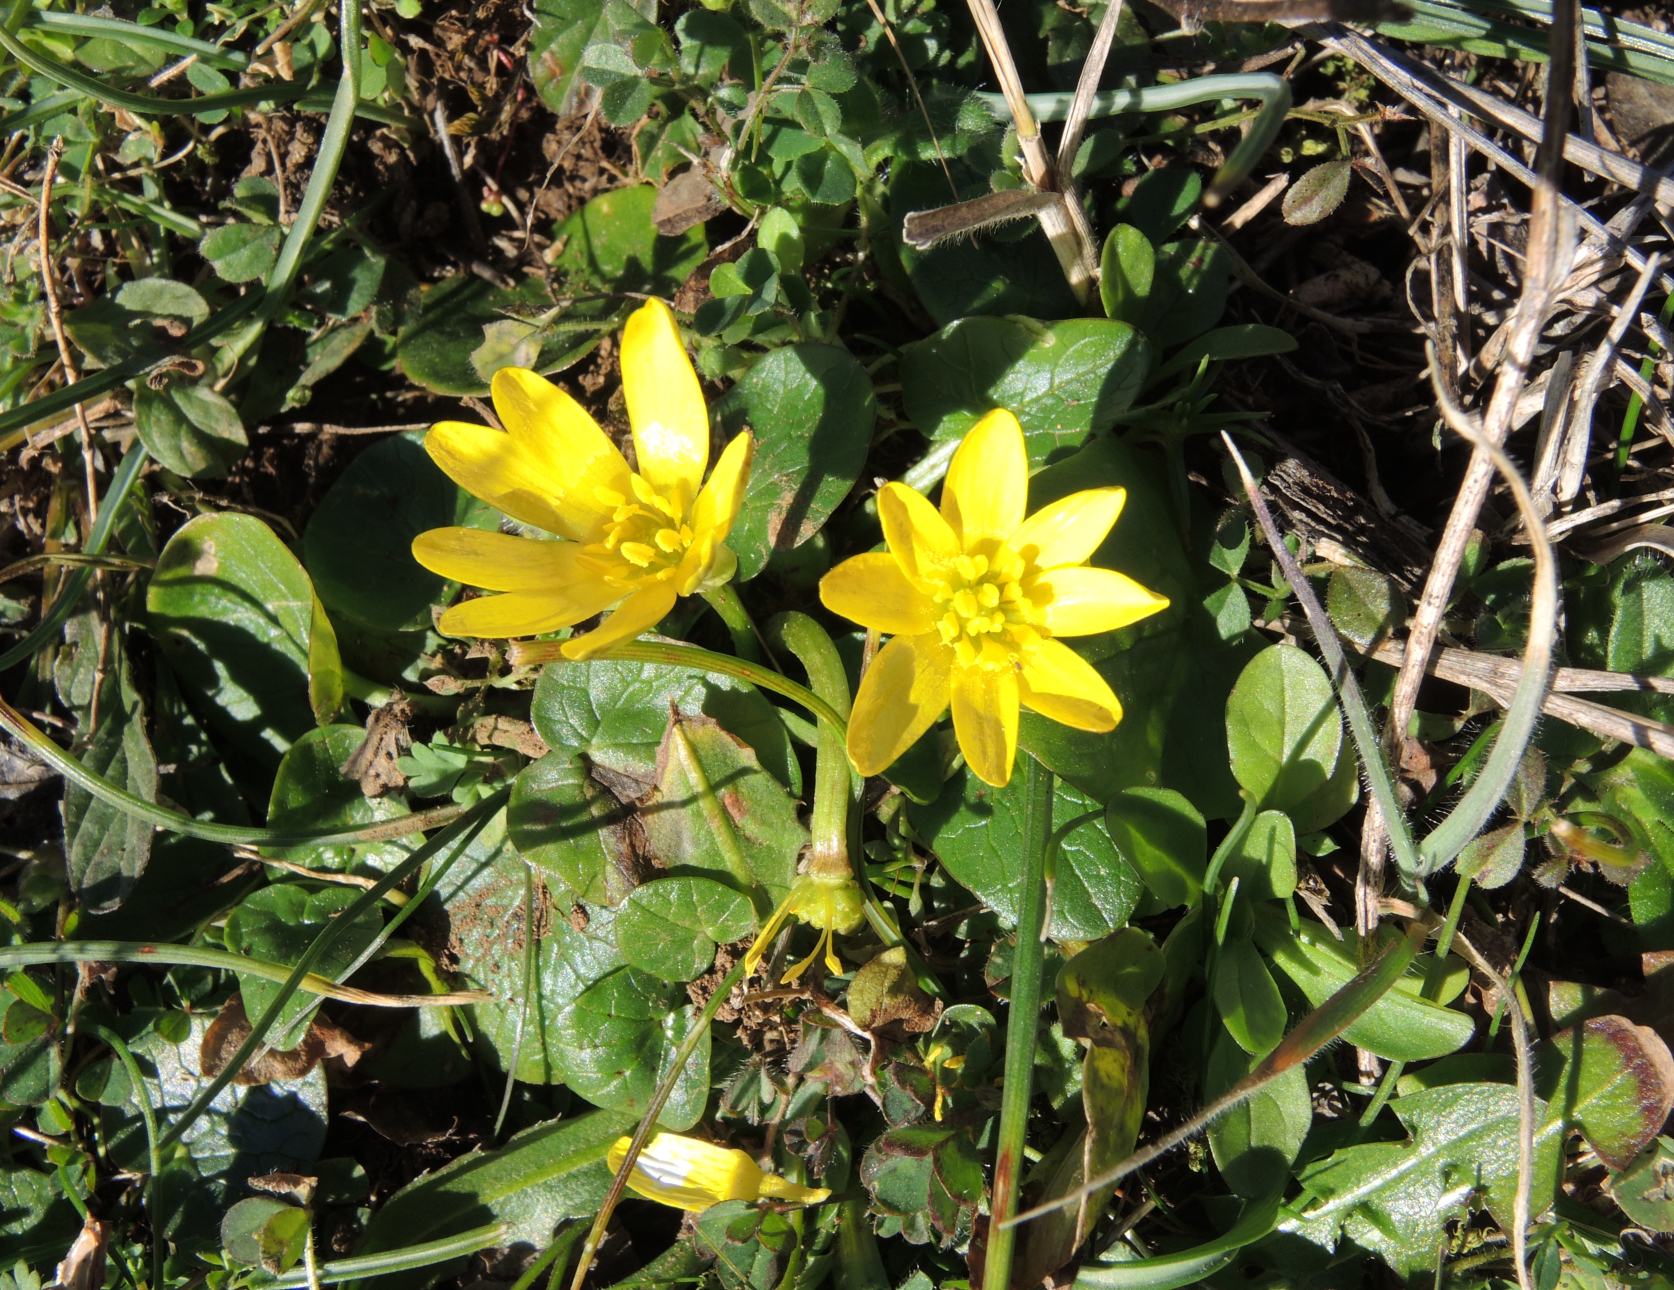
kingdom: Plantae
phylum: Tracheophyta
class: Magnoliopsida
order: Ranunculales
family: Ranunculaceae
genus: Ficaria
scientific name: Ficaria verna
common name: Lesser celandine
